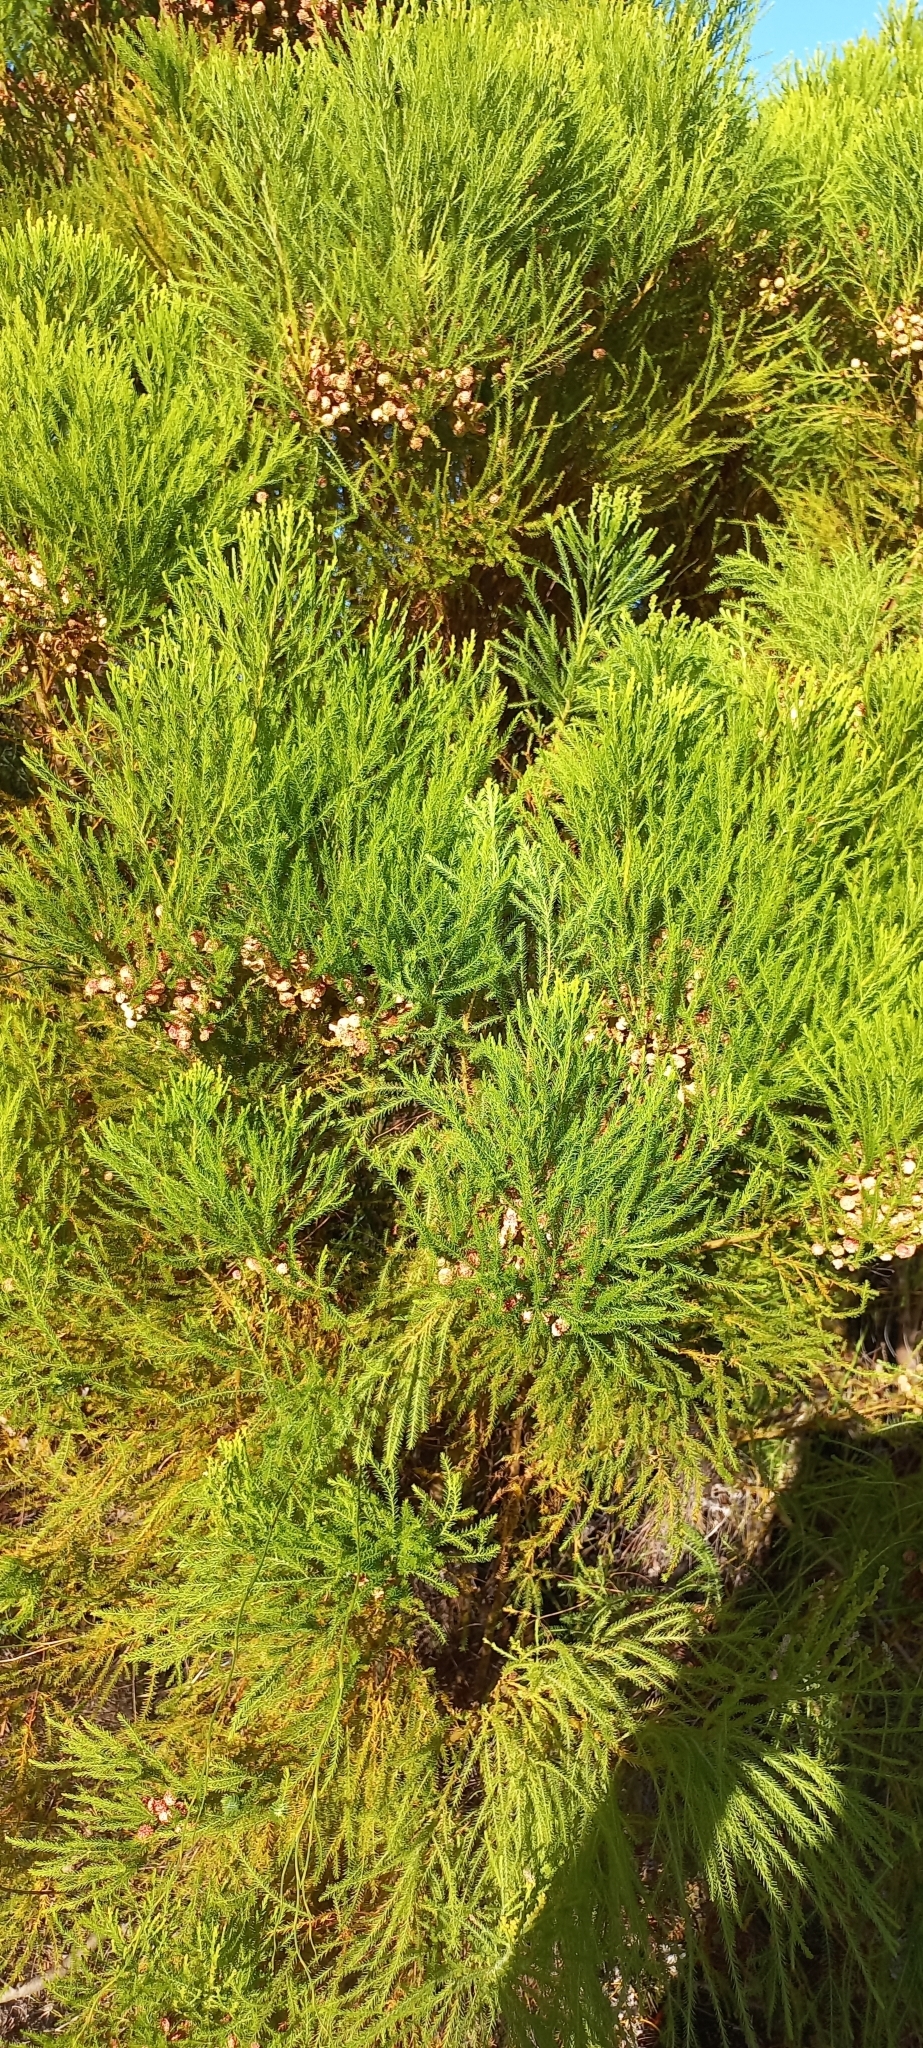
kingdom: Plantae
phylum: Tracheophyta
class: Magnoliopsida
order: Bruniales
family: Bruniaceae
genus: Berzelia
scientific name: Berzelia lanuginosa
